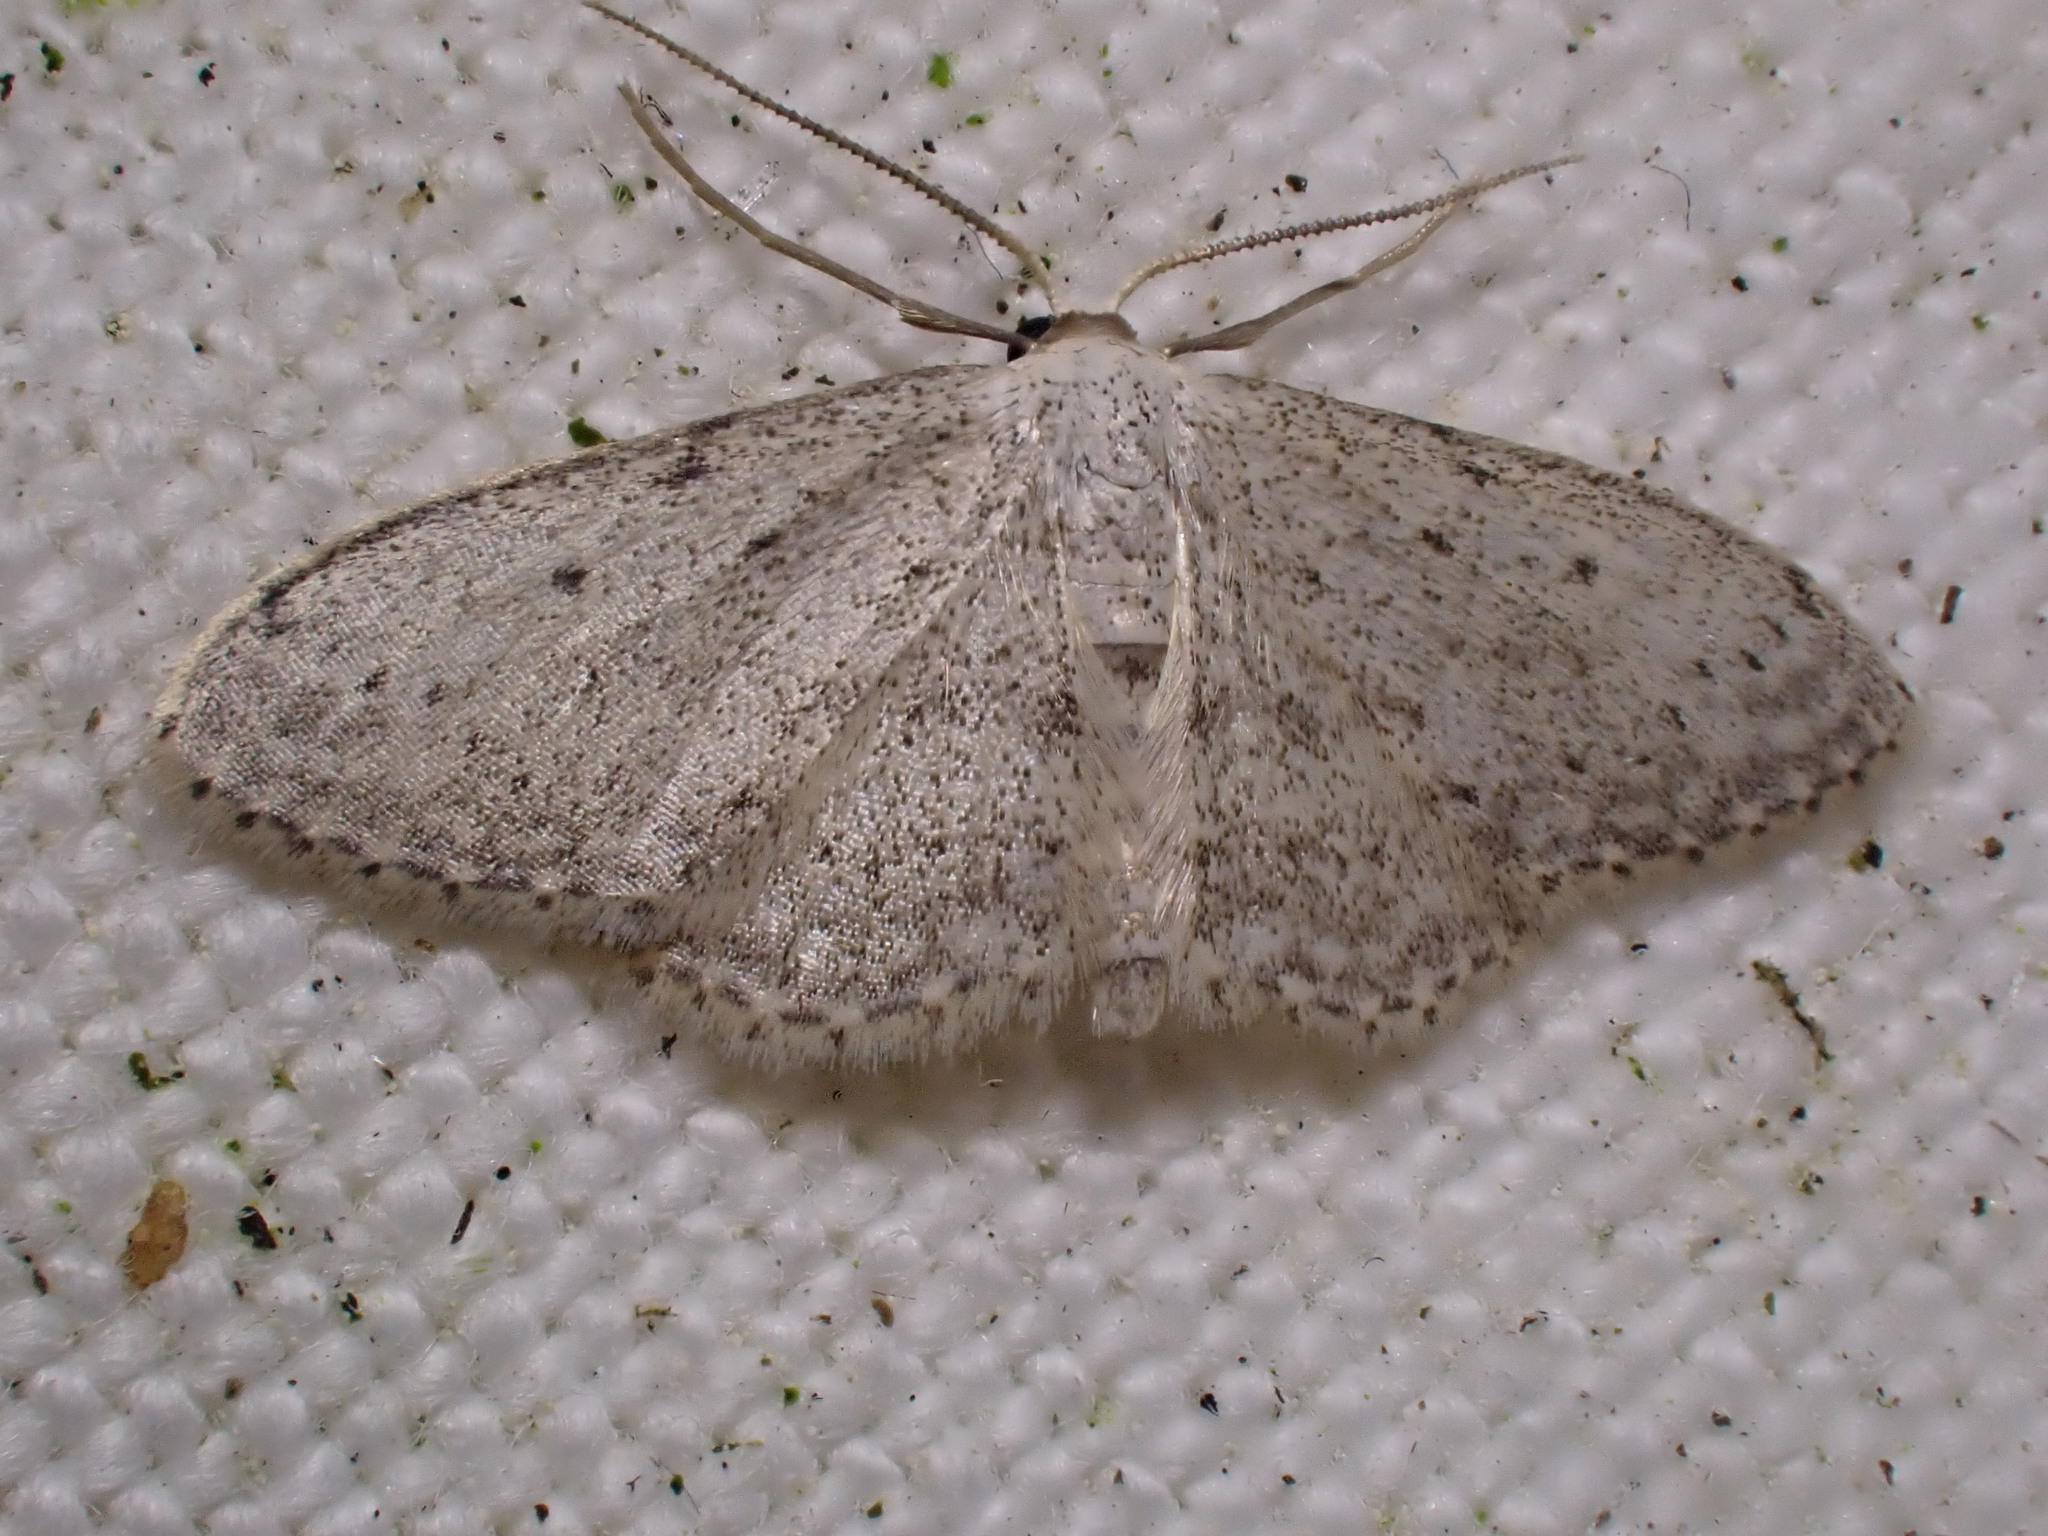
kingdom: Animalia
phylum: Arthropoda
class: Insecta
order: Lepidoptera
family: Geometridae
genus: Idaea
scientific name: Idaea seriata
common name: Small dusty wave
